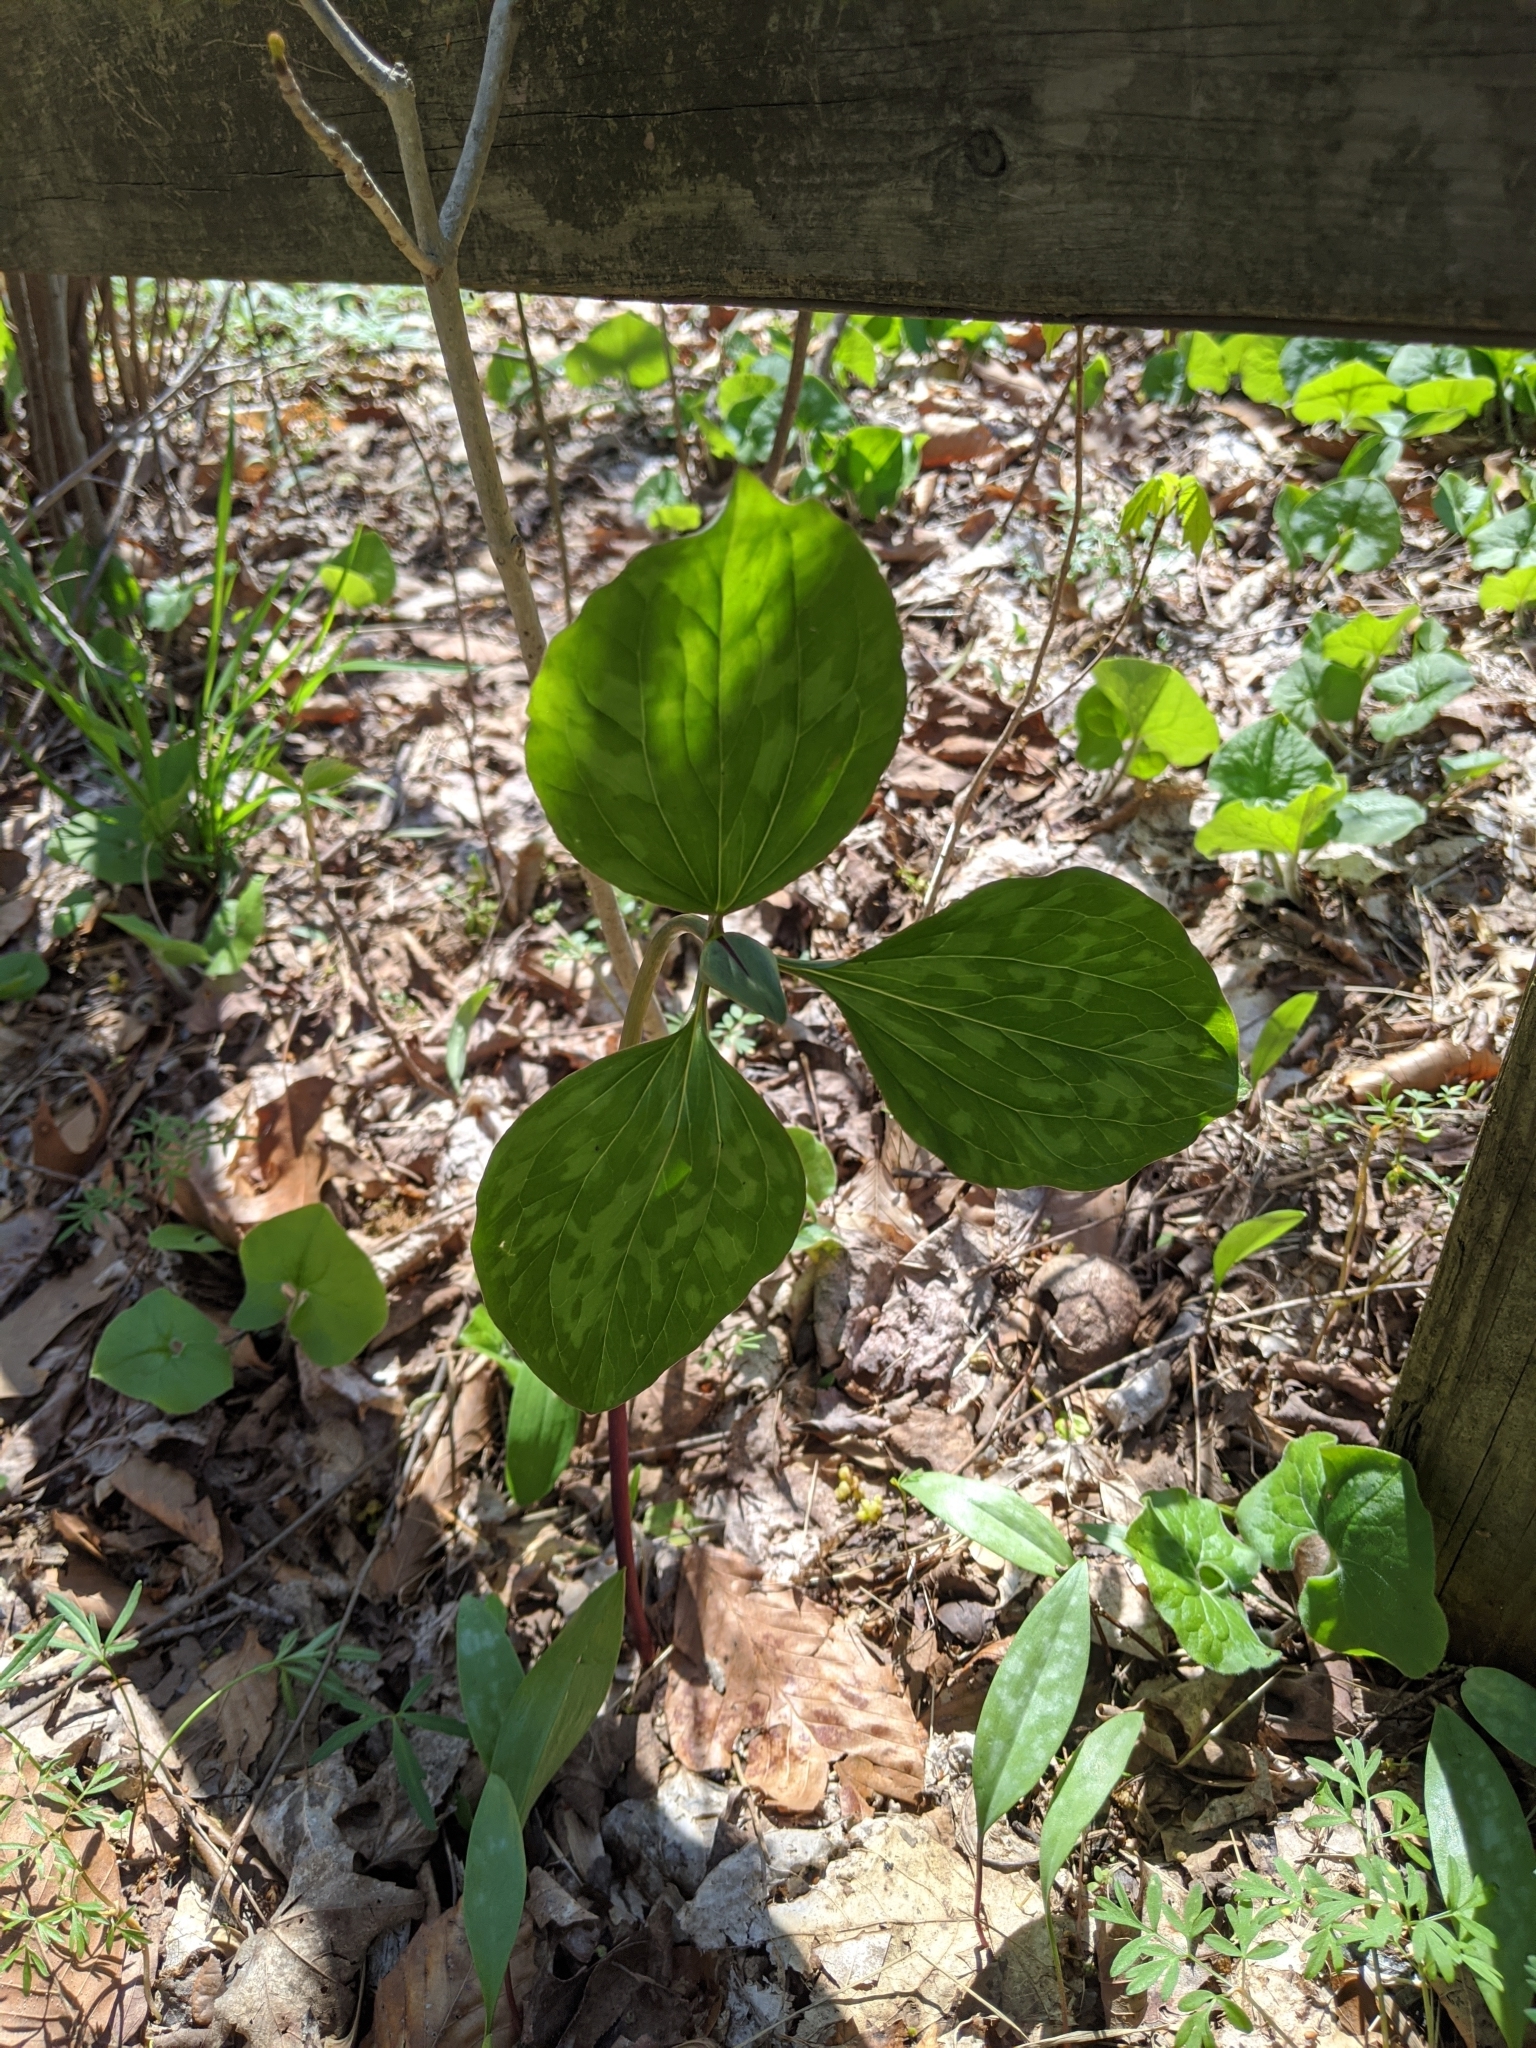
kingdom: Plantae
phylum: Tracheophyta
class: Liliopsida
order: Liliales
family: Melanthiaceae
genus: Trillium
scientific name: Trillium recurvatum
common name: Bloody butcher
